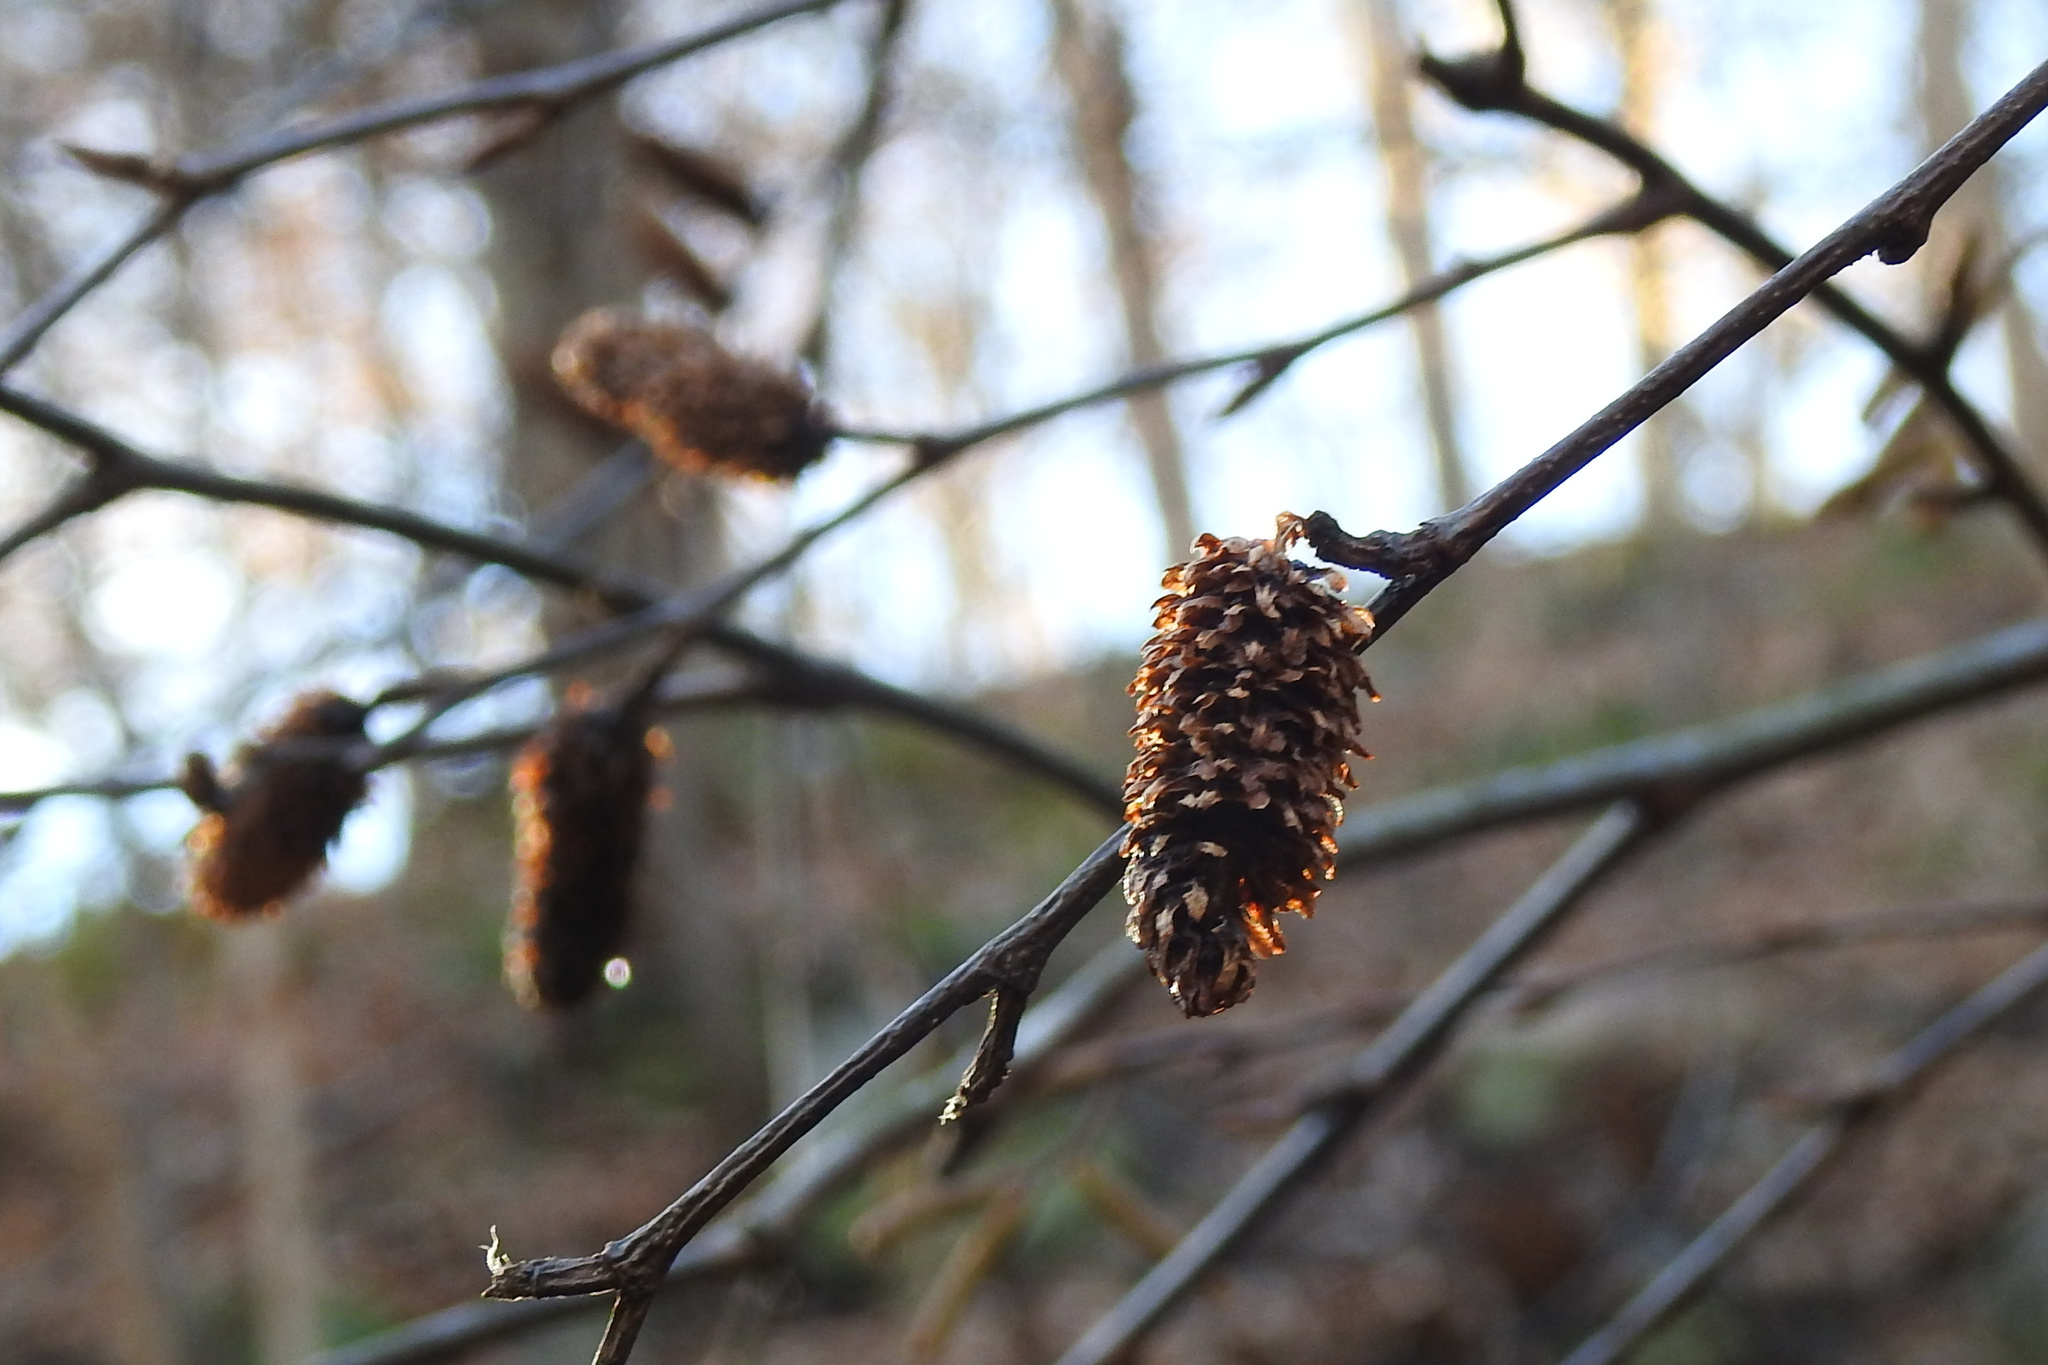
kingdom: Plantae
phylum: Tracheophyta
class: Magnoliopsida
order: Fagales
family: Betulaceae
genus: Betula
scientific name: Betula lenta
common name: Black birch
